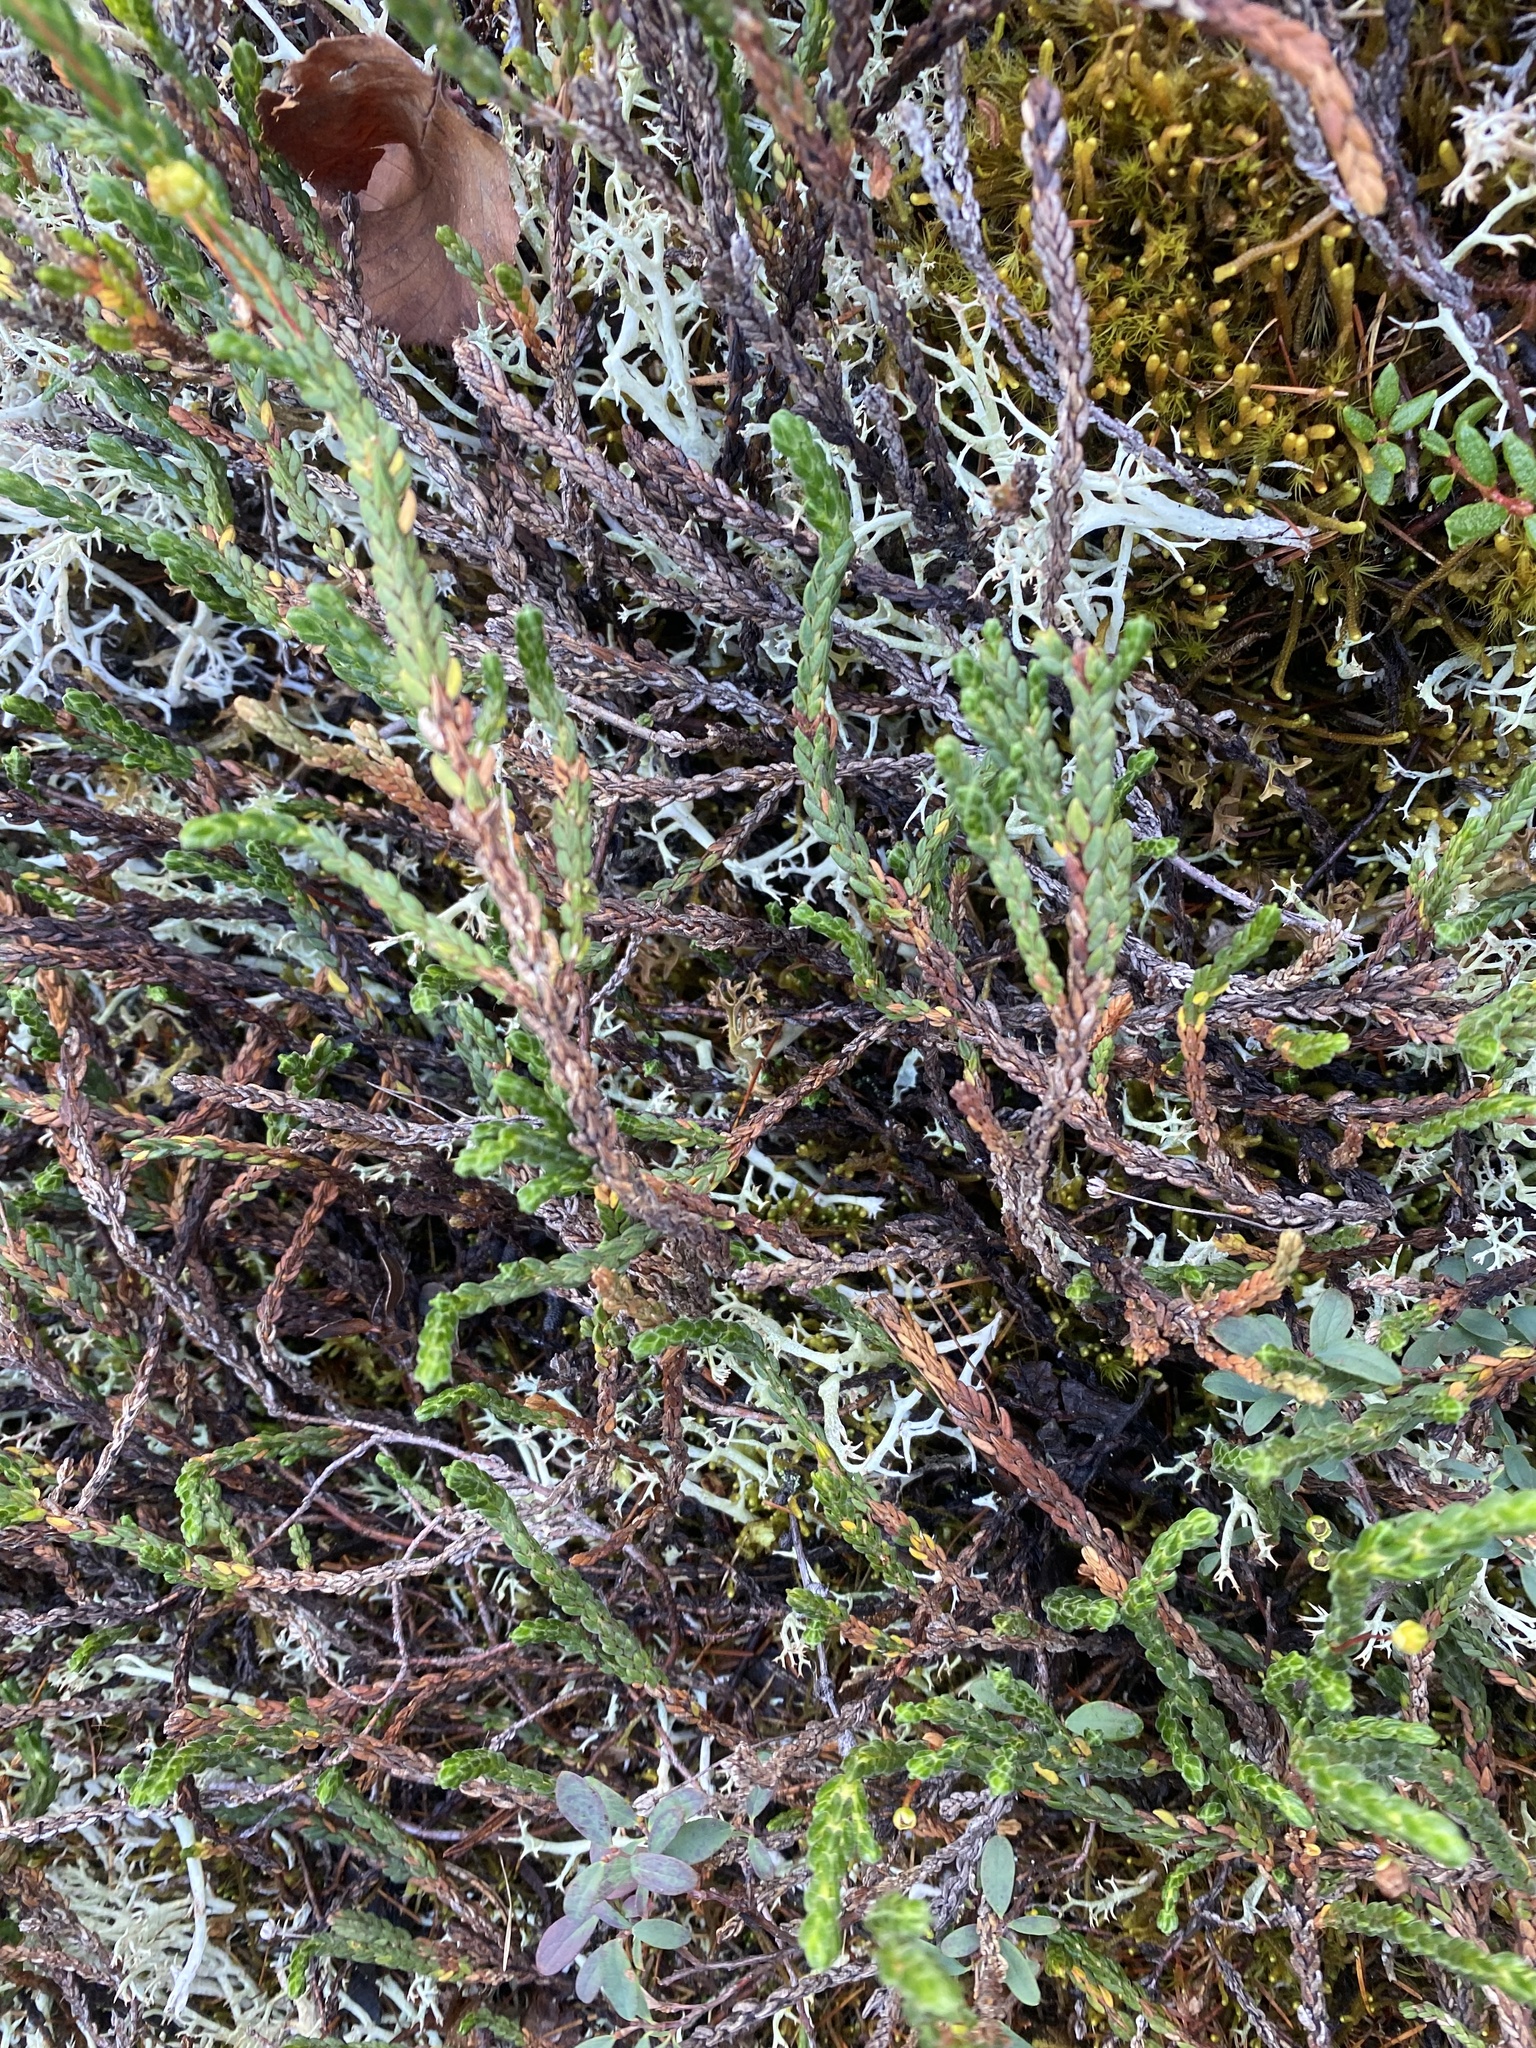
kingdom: Plantae
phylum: Tracheophyta
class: Magnoliopsida
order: Ericales
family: Ericaceae
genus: Cassiope
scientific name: Cassiope tetragona
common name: Arctic bell heather
